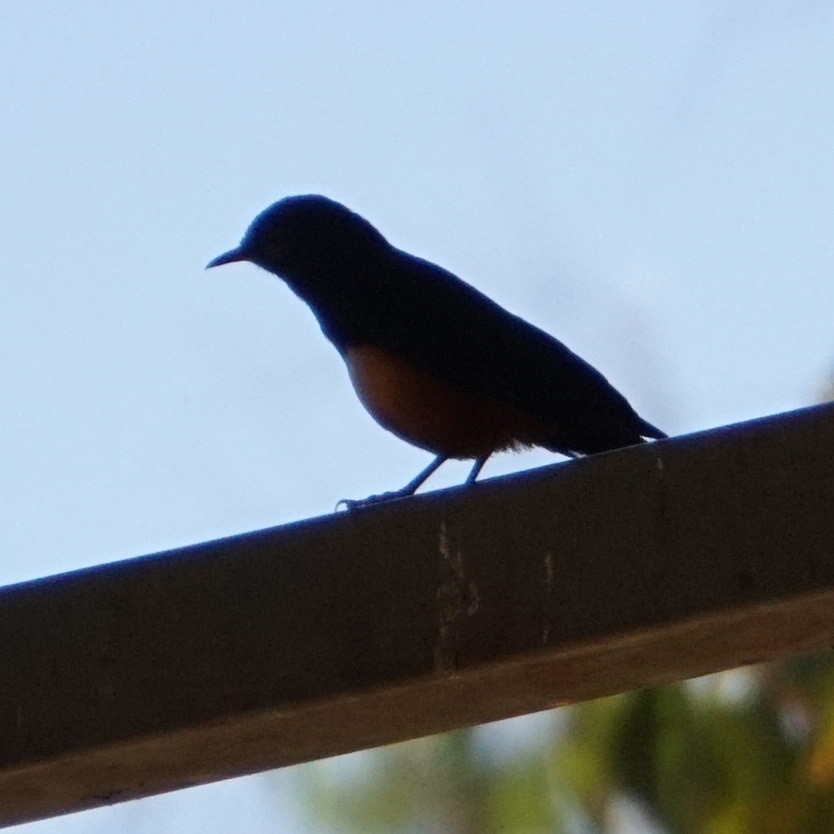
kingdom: Animalia
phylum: Chordata
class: Aves
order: Passeriformes
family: Muscicapidae
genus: Thamnolaea
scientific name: Thamnolaea cinnamomeiventris
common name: Mocking cliff chat
